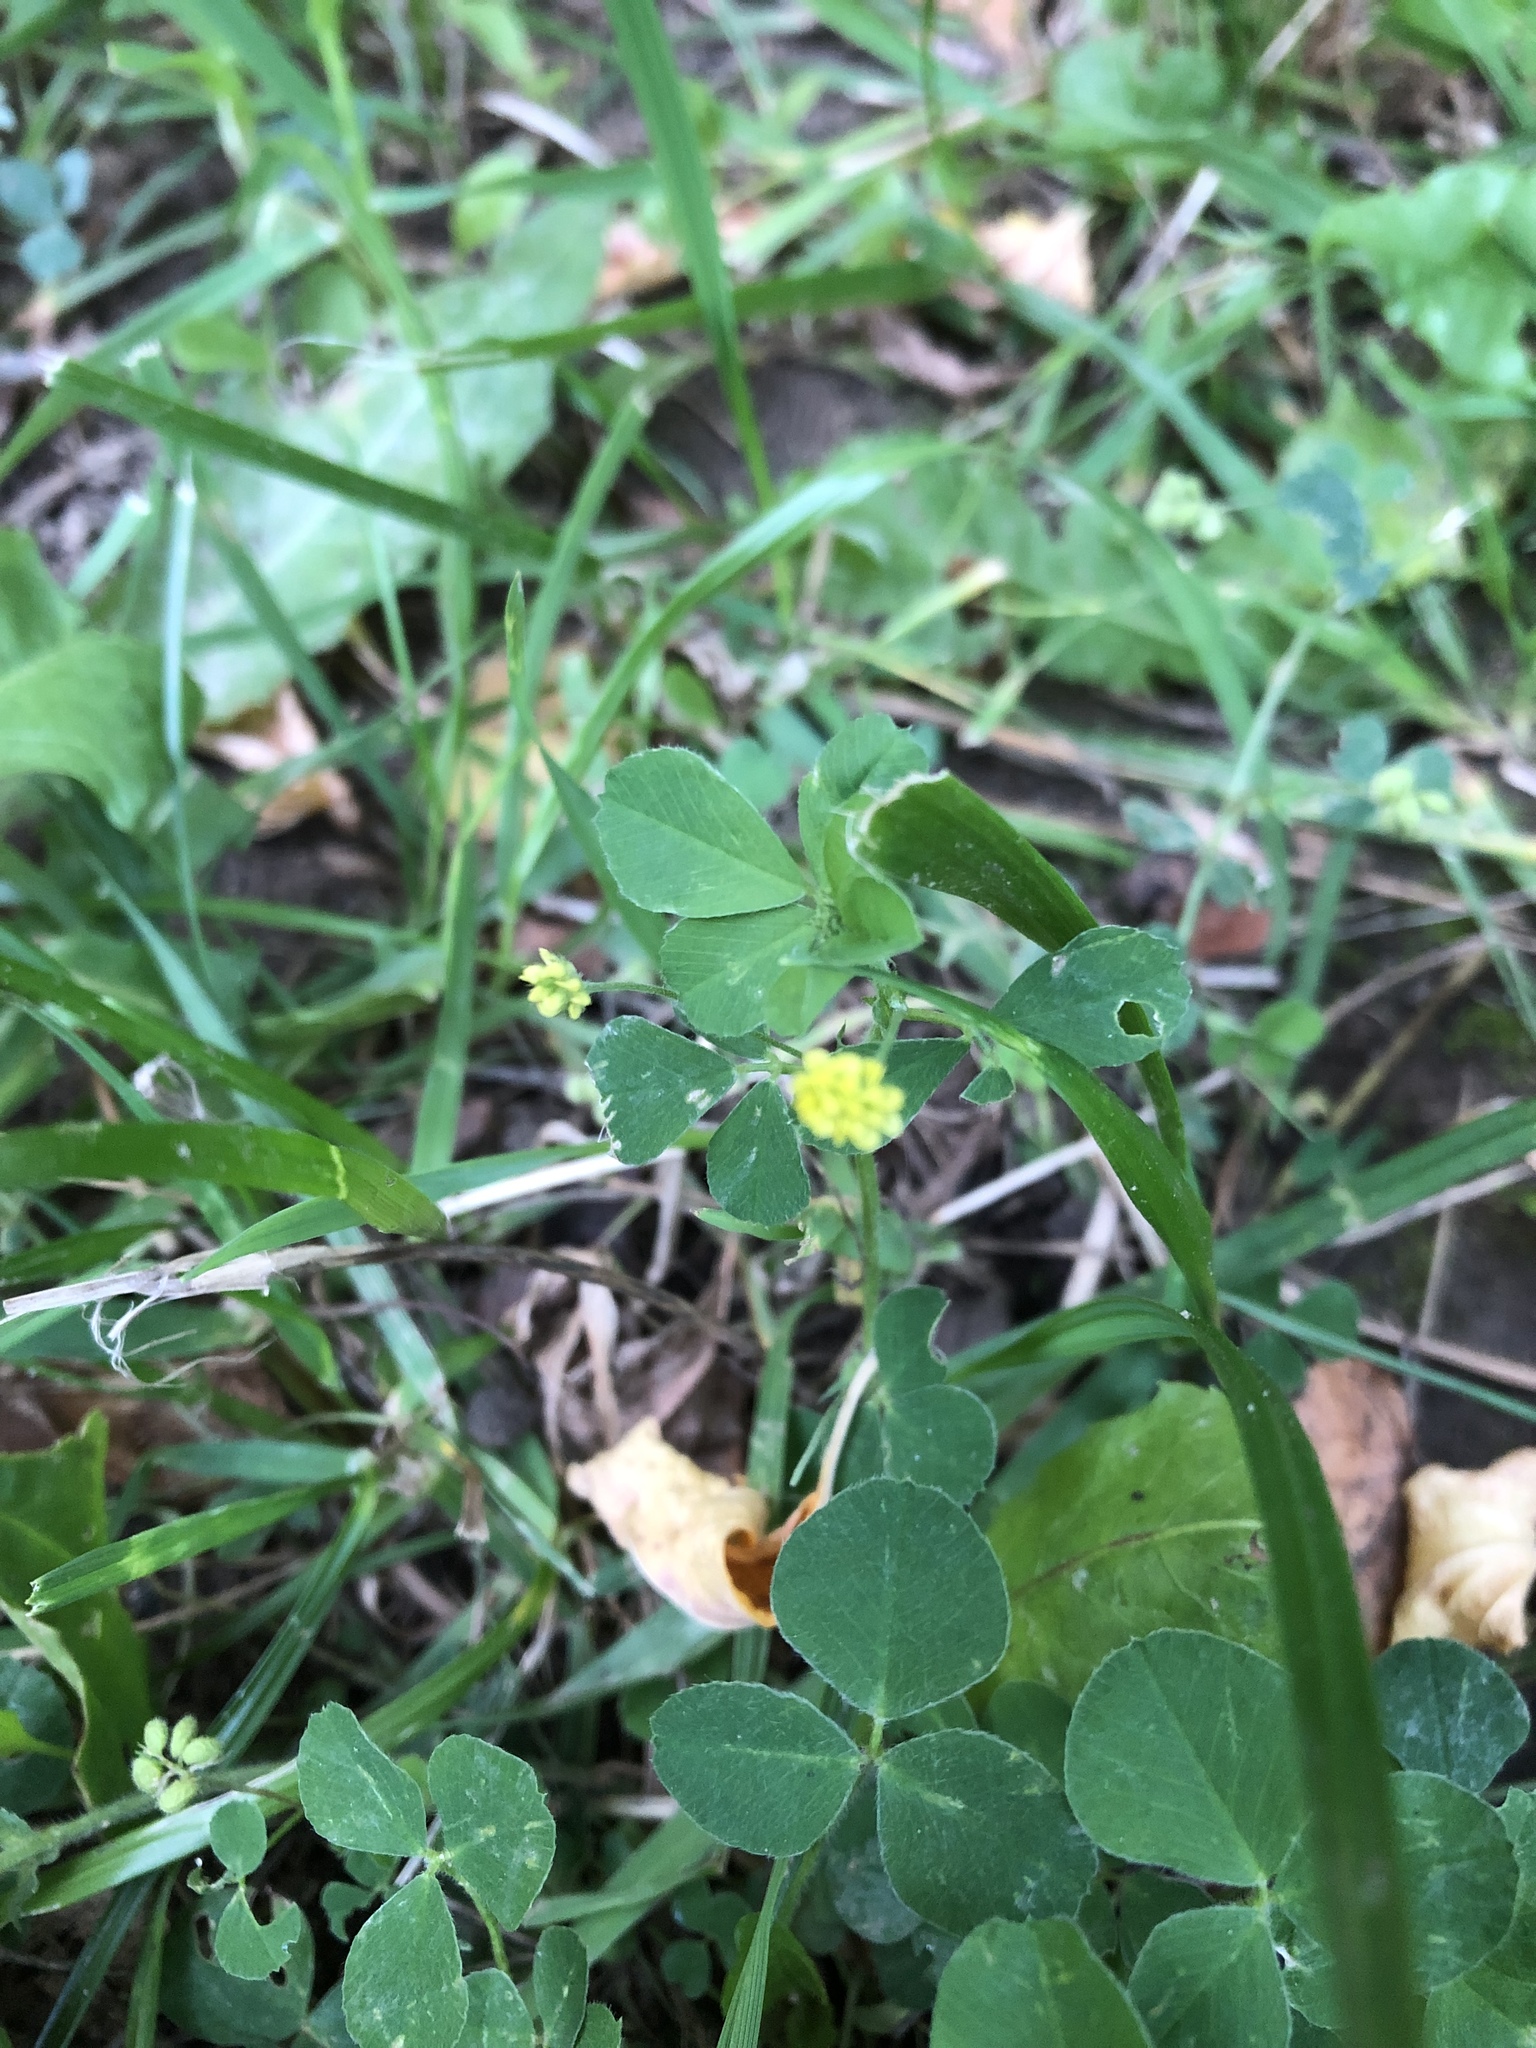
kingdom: Plantae
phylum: Tracheophyta
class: Magnoliopsida
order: Fabales
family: Fabaceae
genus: Medicago
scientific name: Medicago lupulina
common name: Black medick
